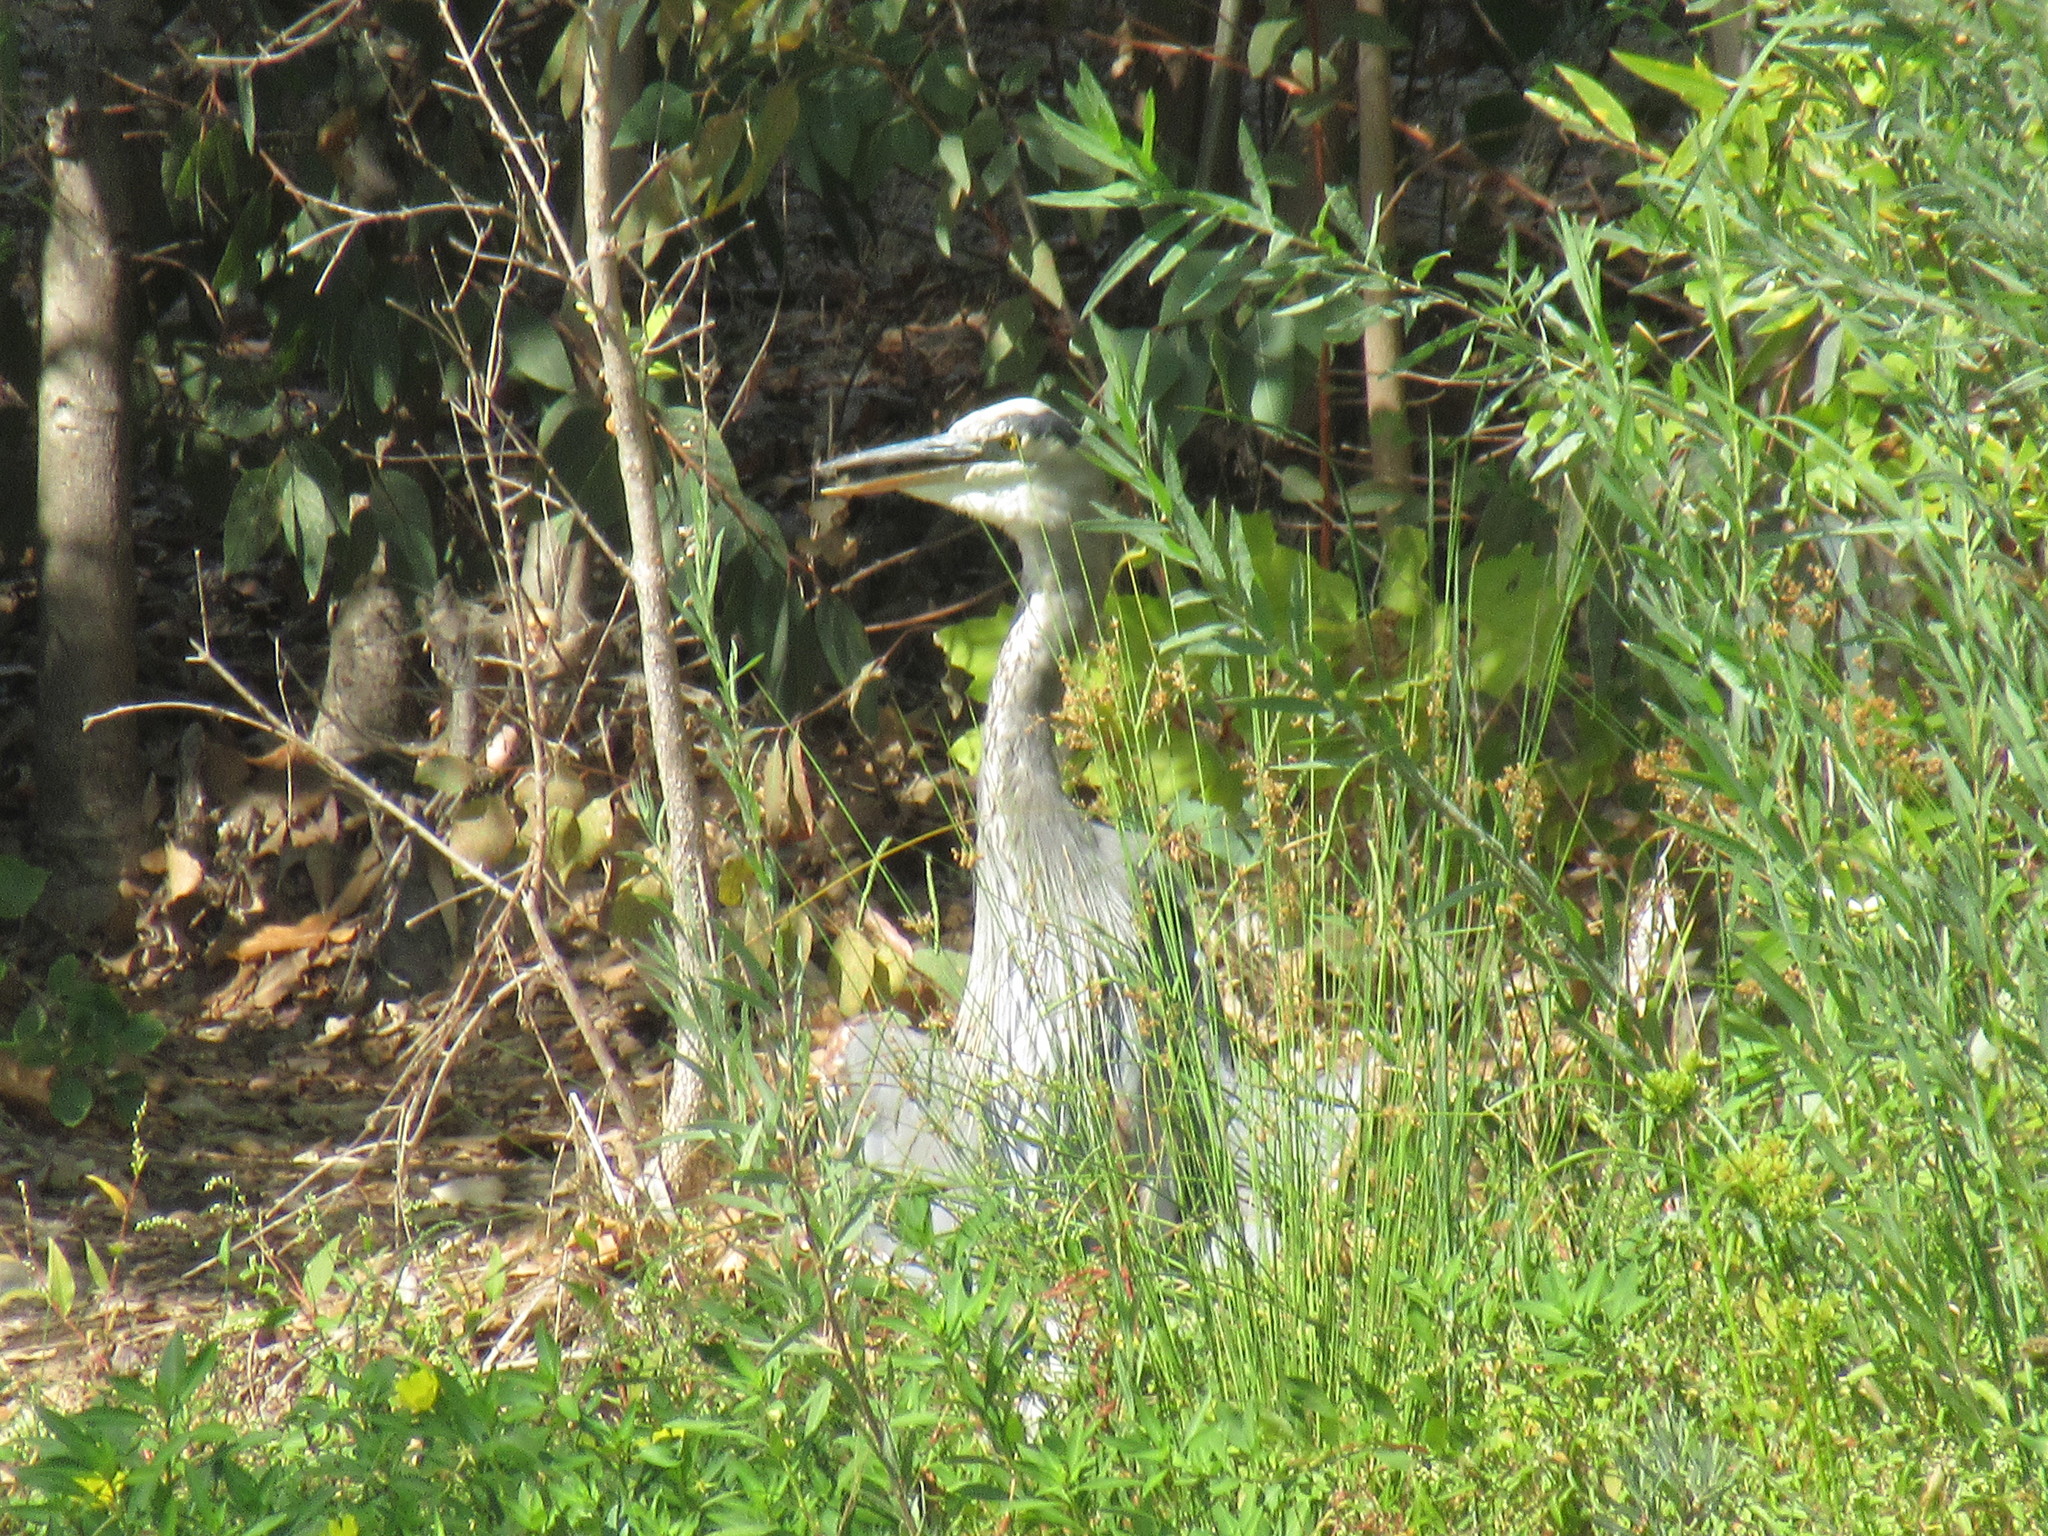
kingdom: Animalia
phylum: Chordata
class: Aves
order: Pelecaniformes
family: Ardeidae
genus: Ardea
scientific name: Ardea herodias
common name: Great blue heron
